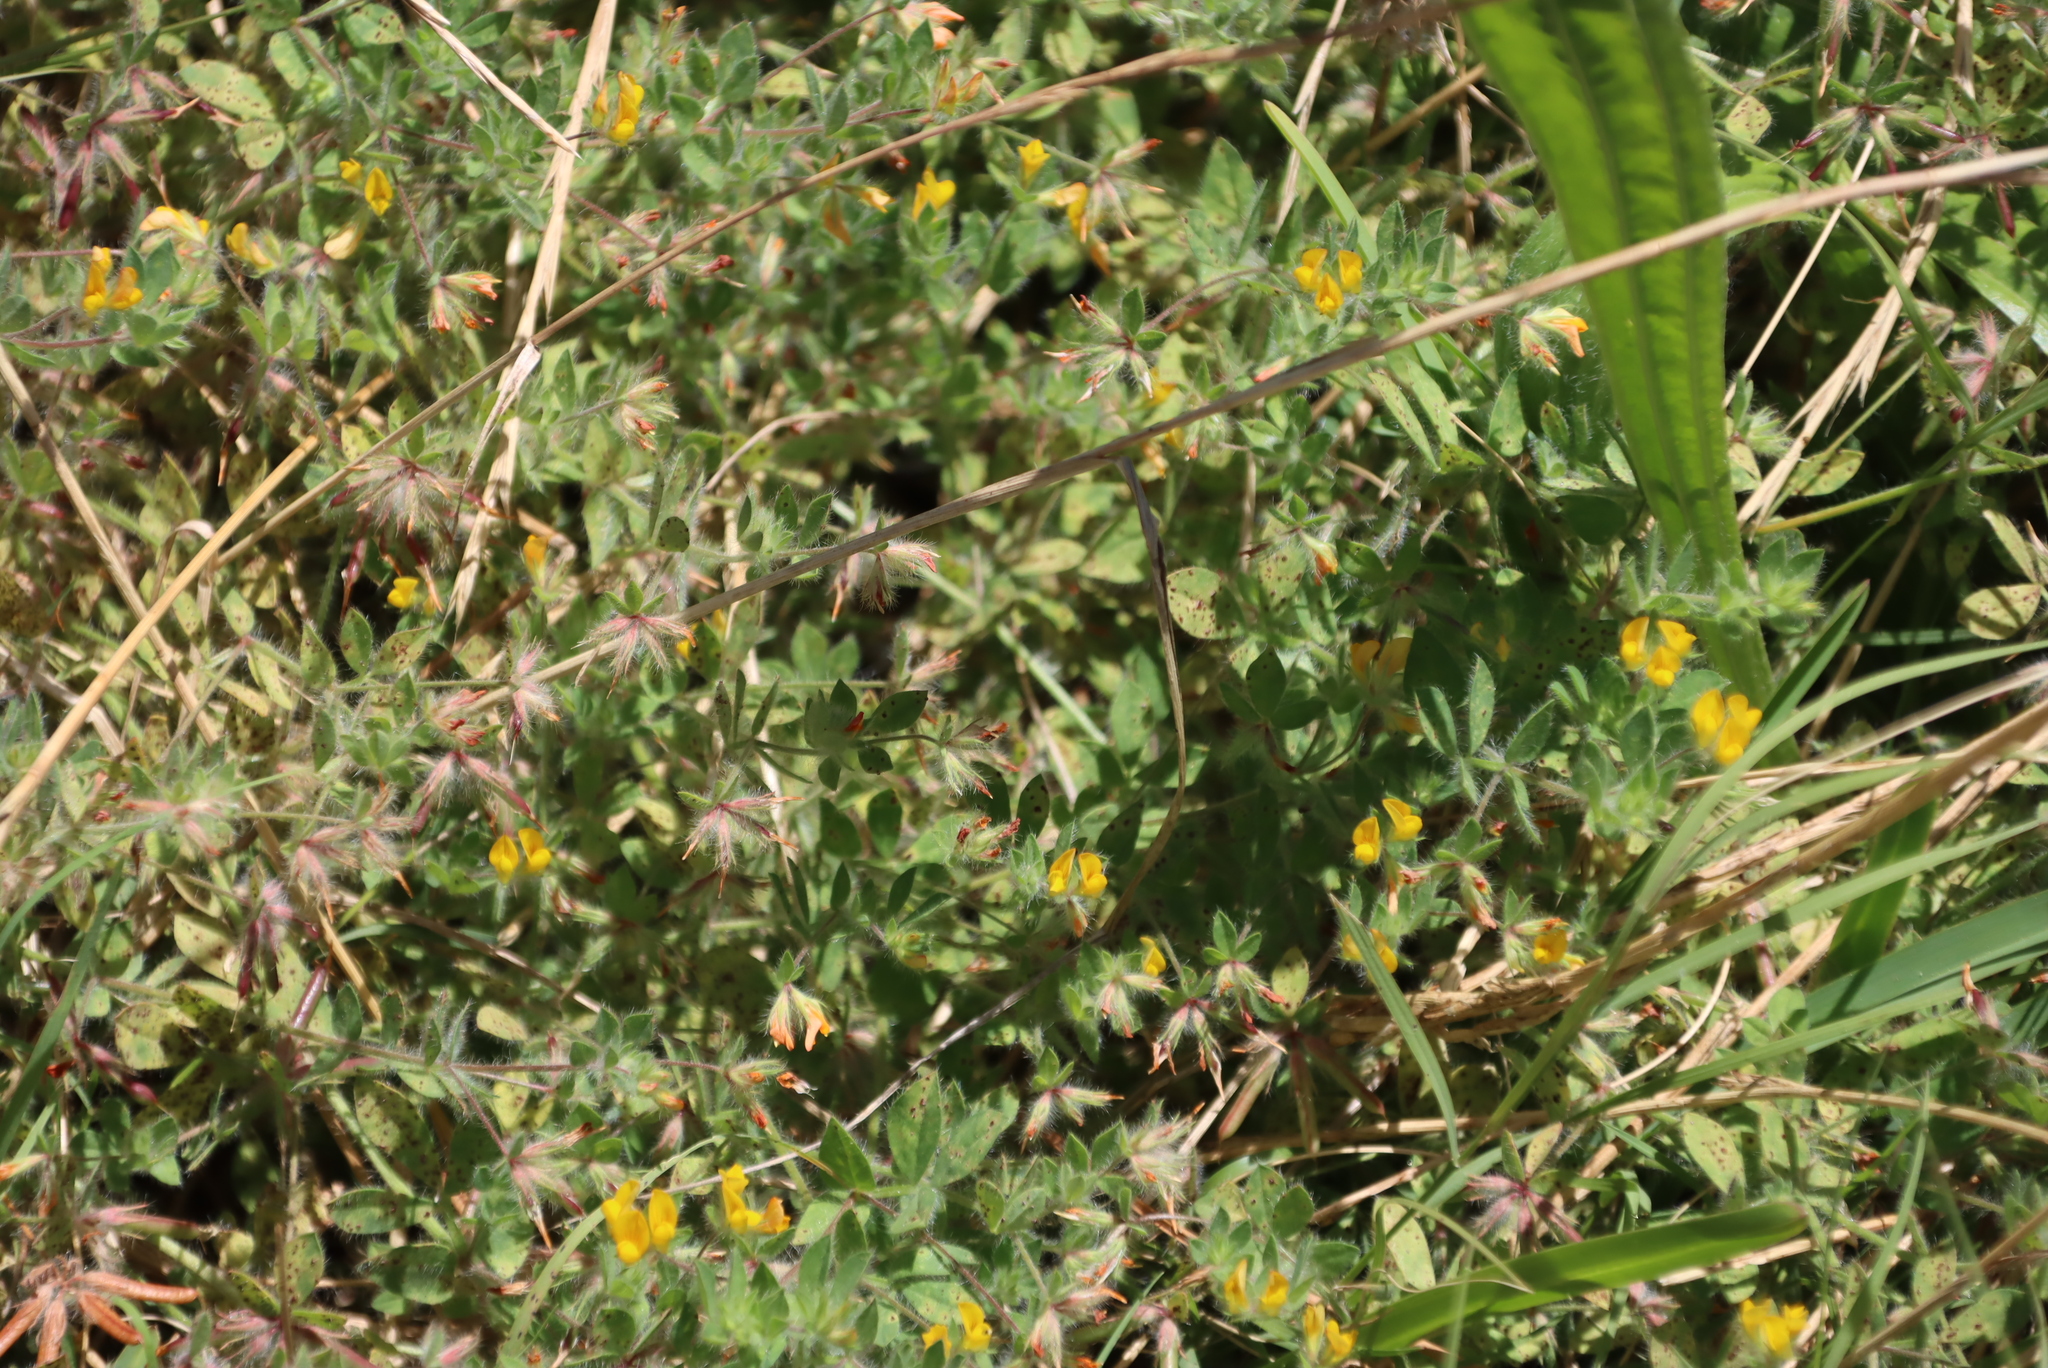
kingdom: Plantae
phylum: Tracheophyta
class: Magnoliopsida
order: Fabales
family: Fabaceae
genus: Lotus
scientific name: Lotus subbiflorus
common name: Hairy bird's-foot trefoil
